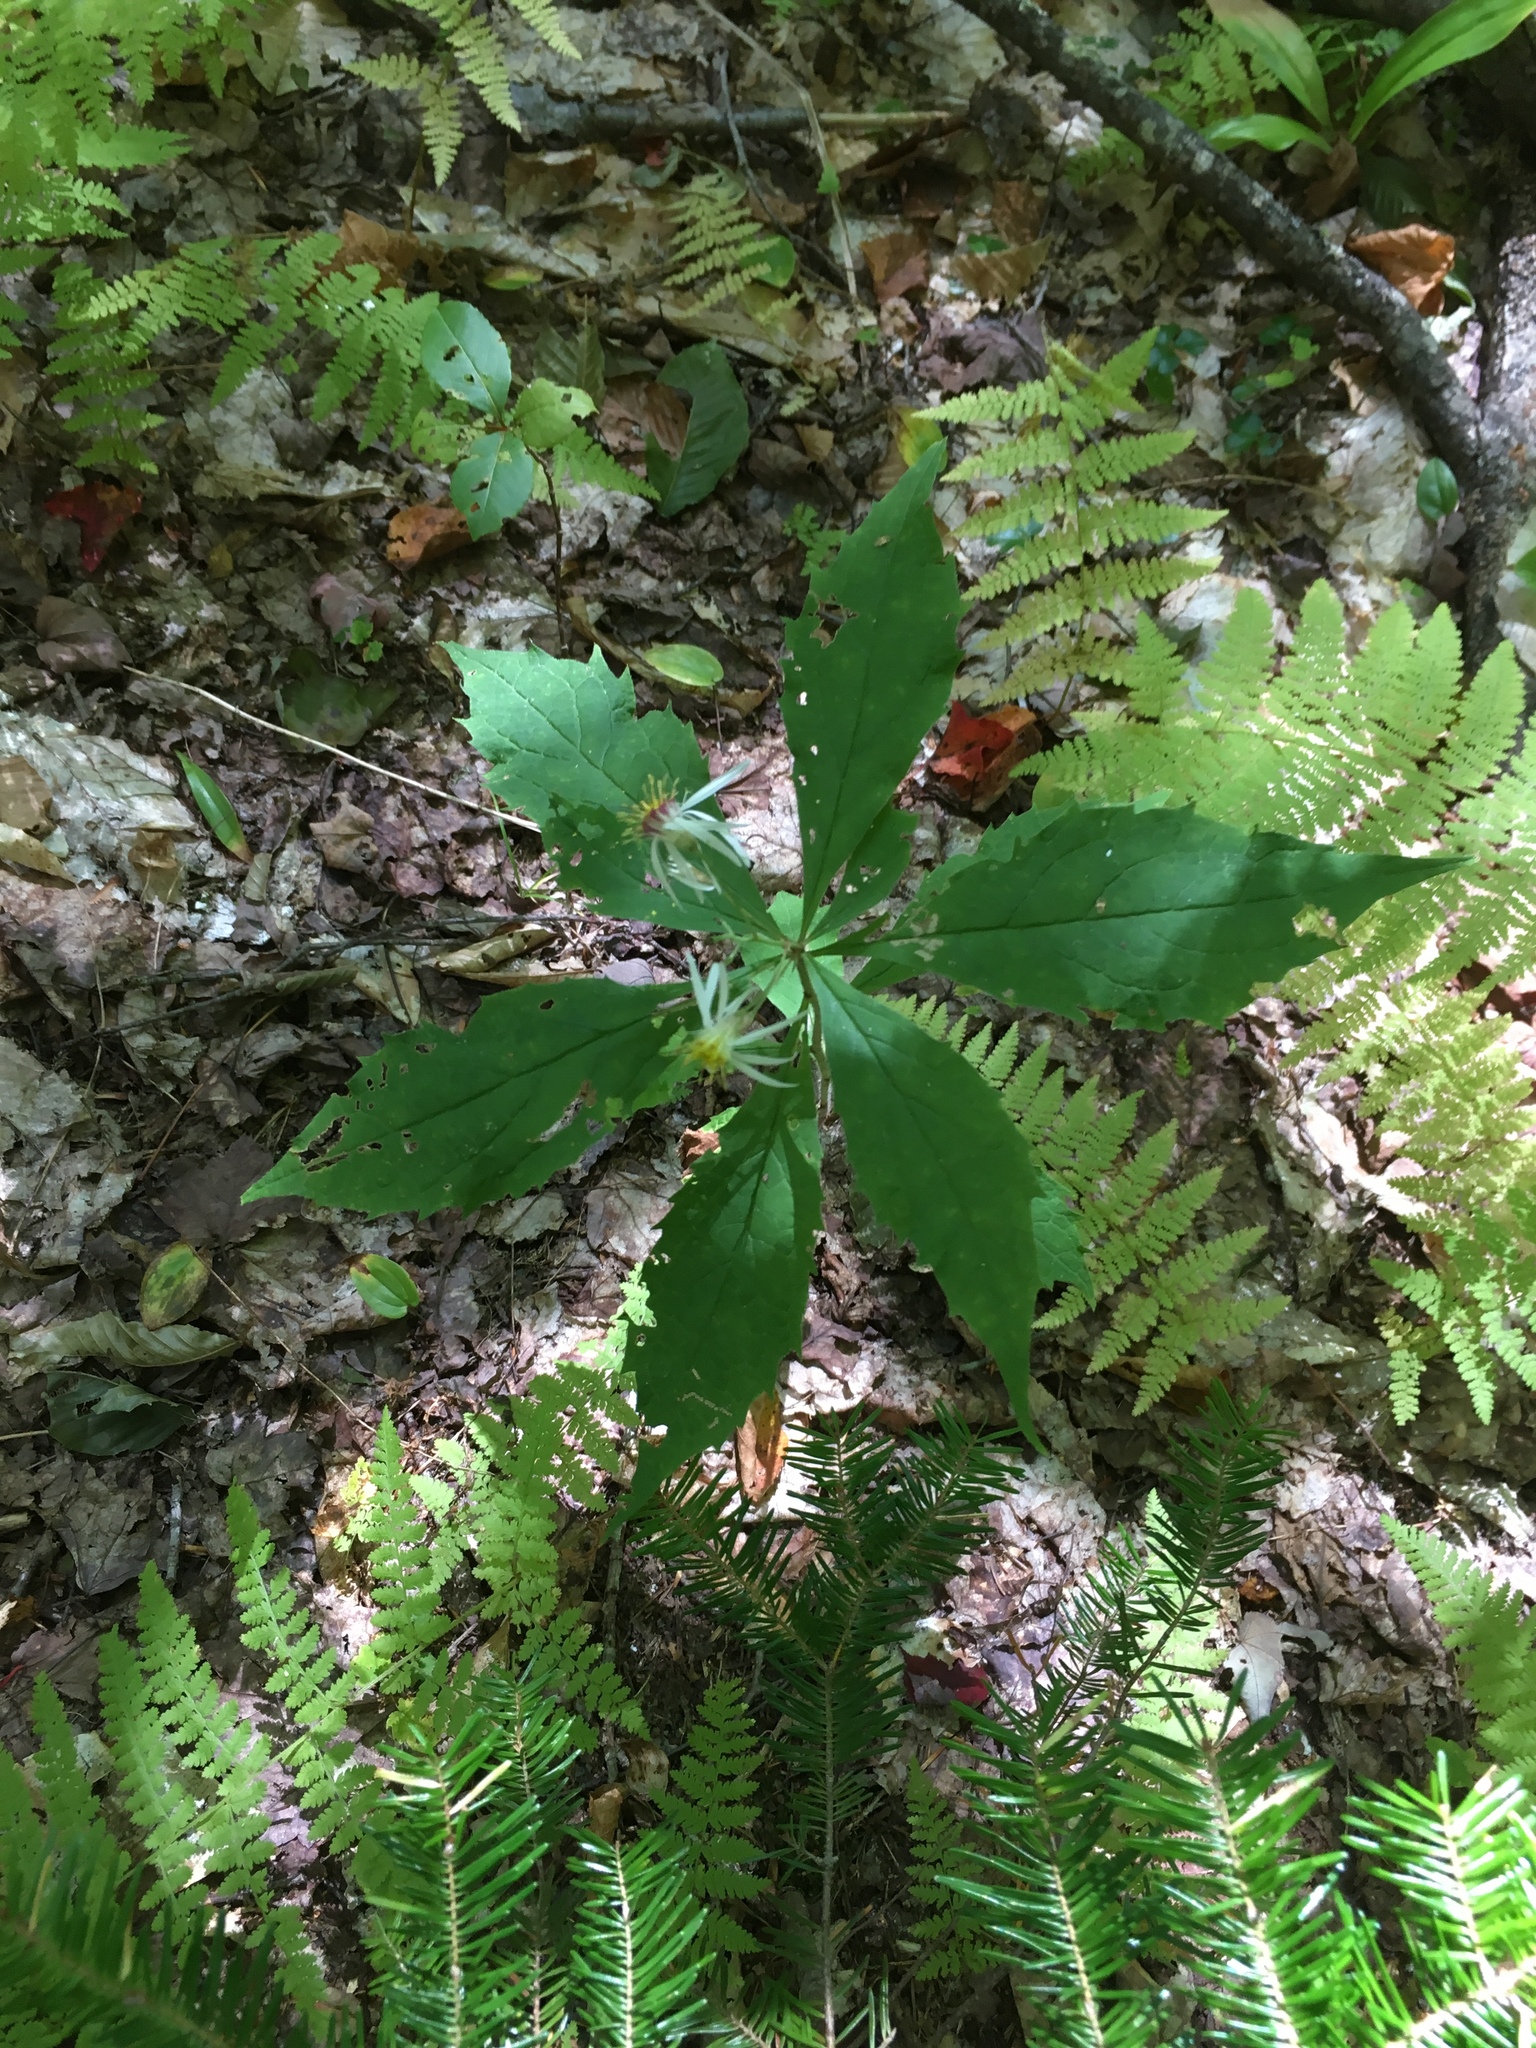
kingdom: Plantae
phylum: Tracheophyta
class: Magnoliopsida
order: Asterales
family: Asteraceae
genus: Oclemena
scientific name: Oclemena acuminata
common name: Mountain aster
